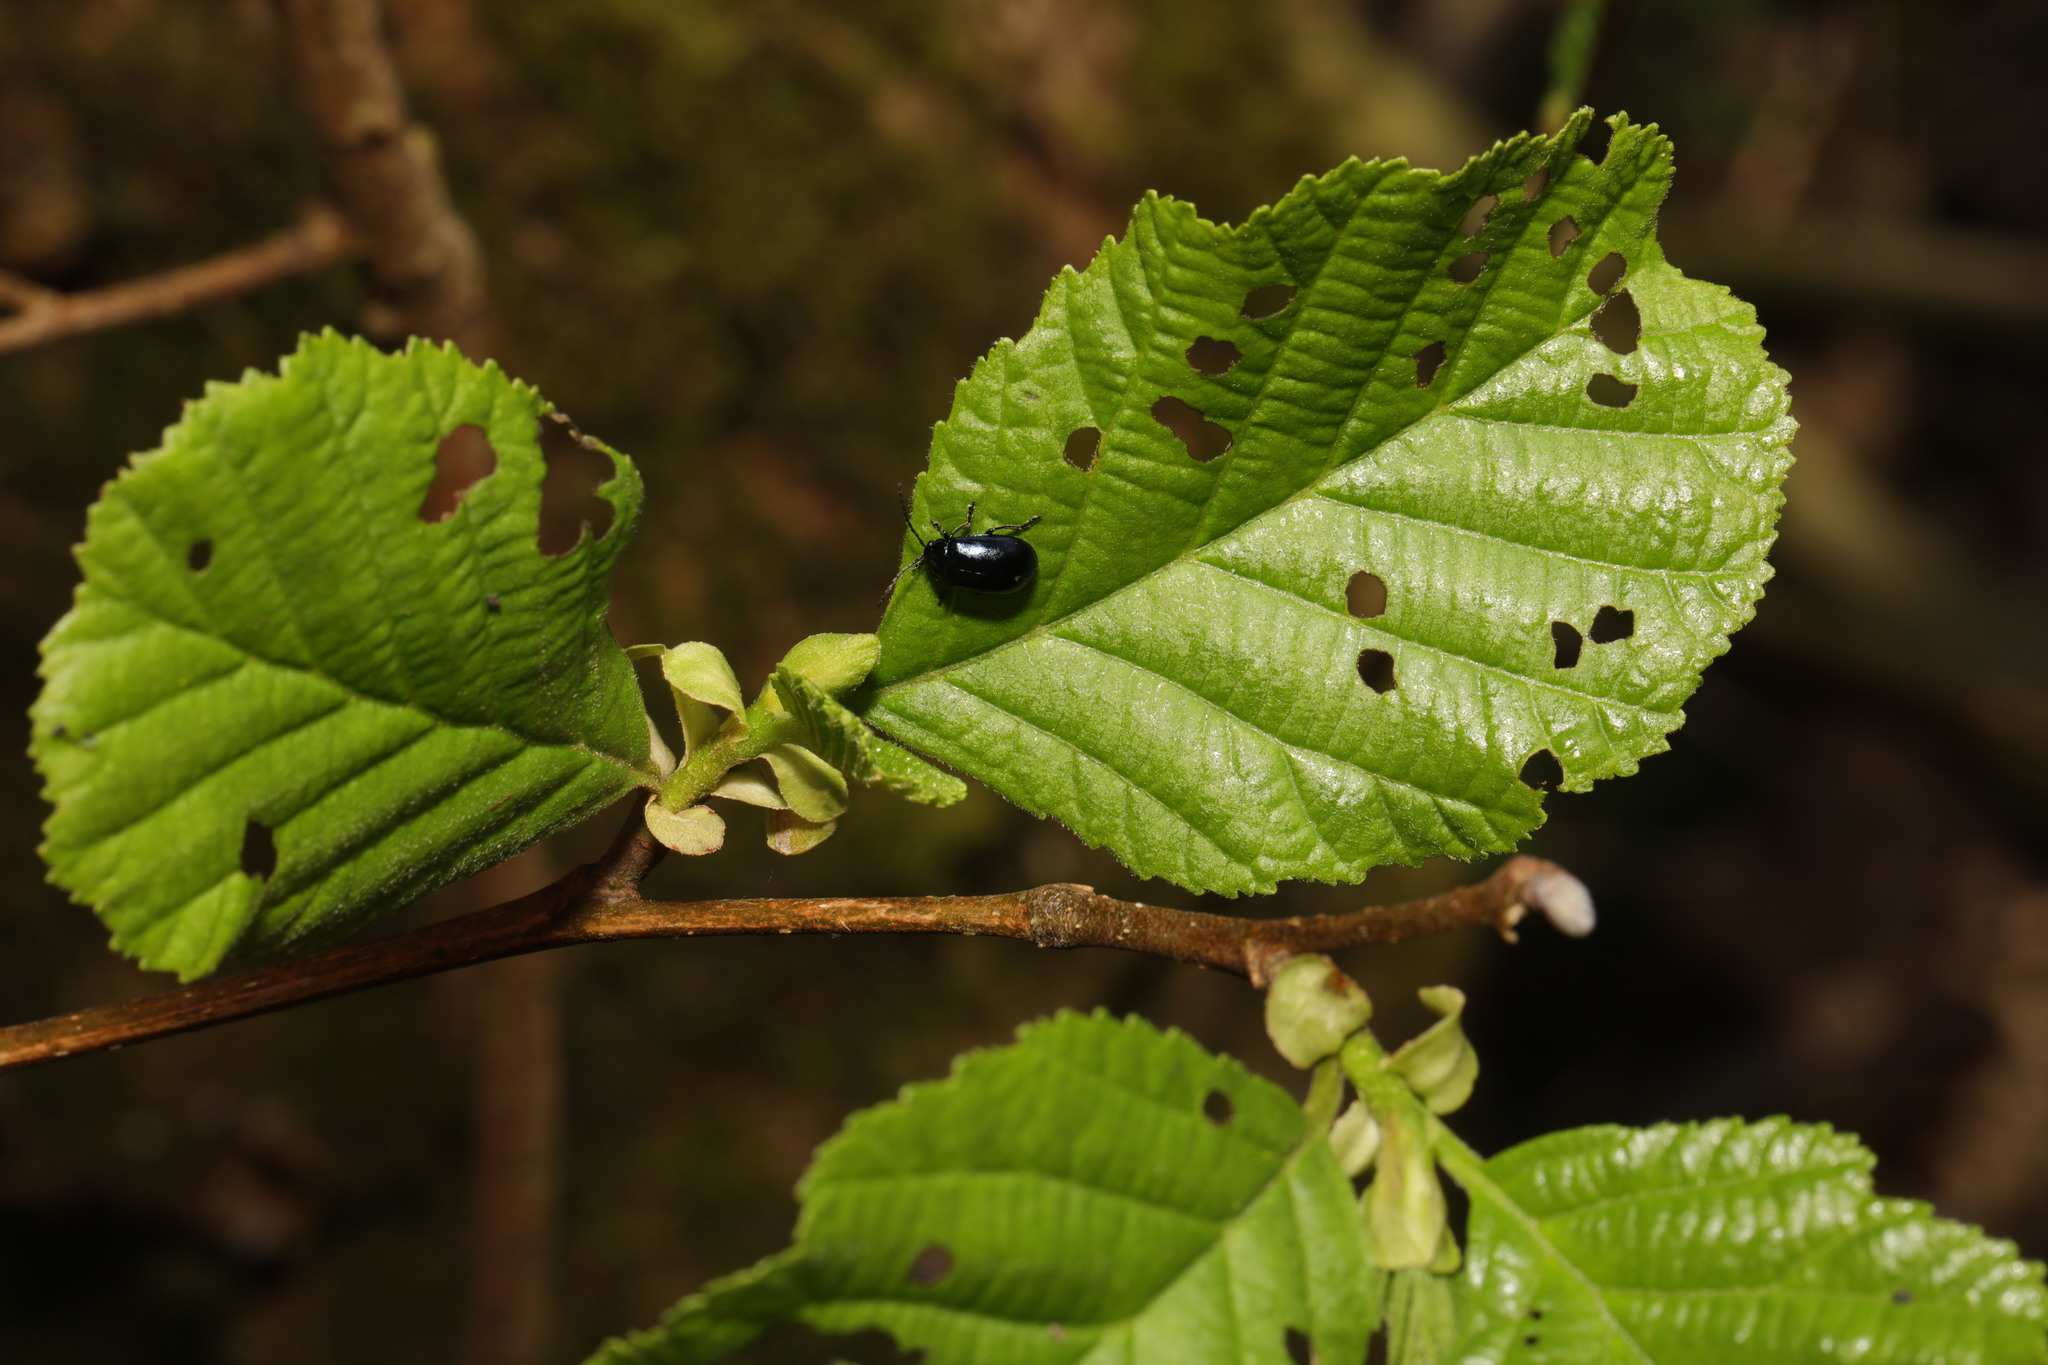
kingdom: Animalia
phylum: Arthropoda
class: Insecta
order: Coleoptera
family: Chrysomelidae
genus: Agelastica
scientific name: Agelastica alni
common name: Alder leaf beetle
